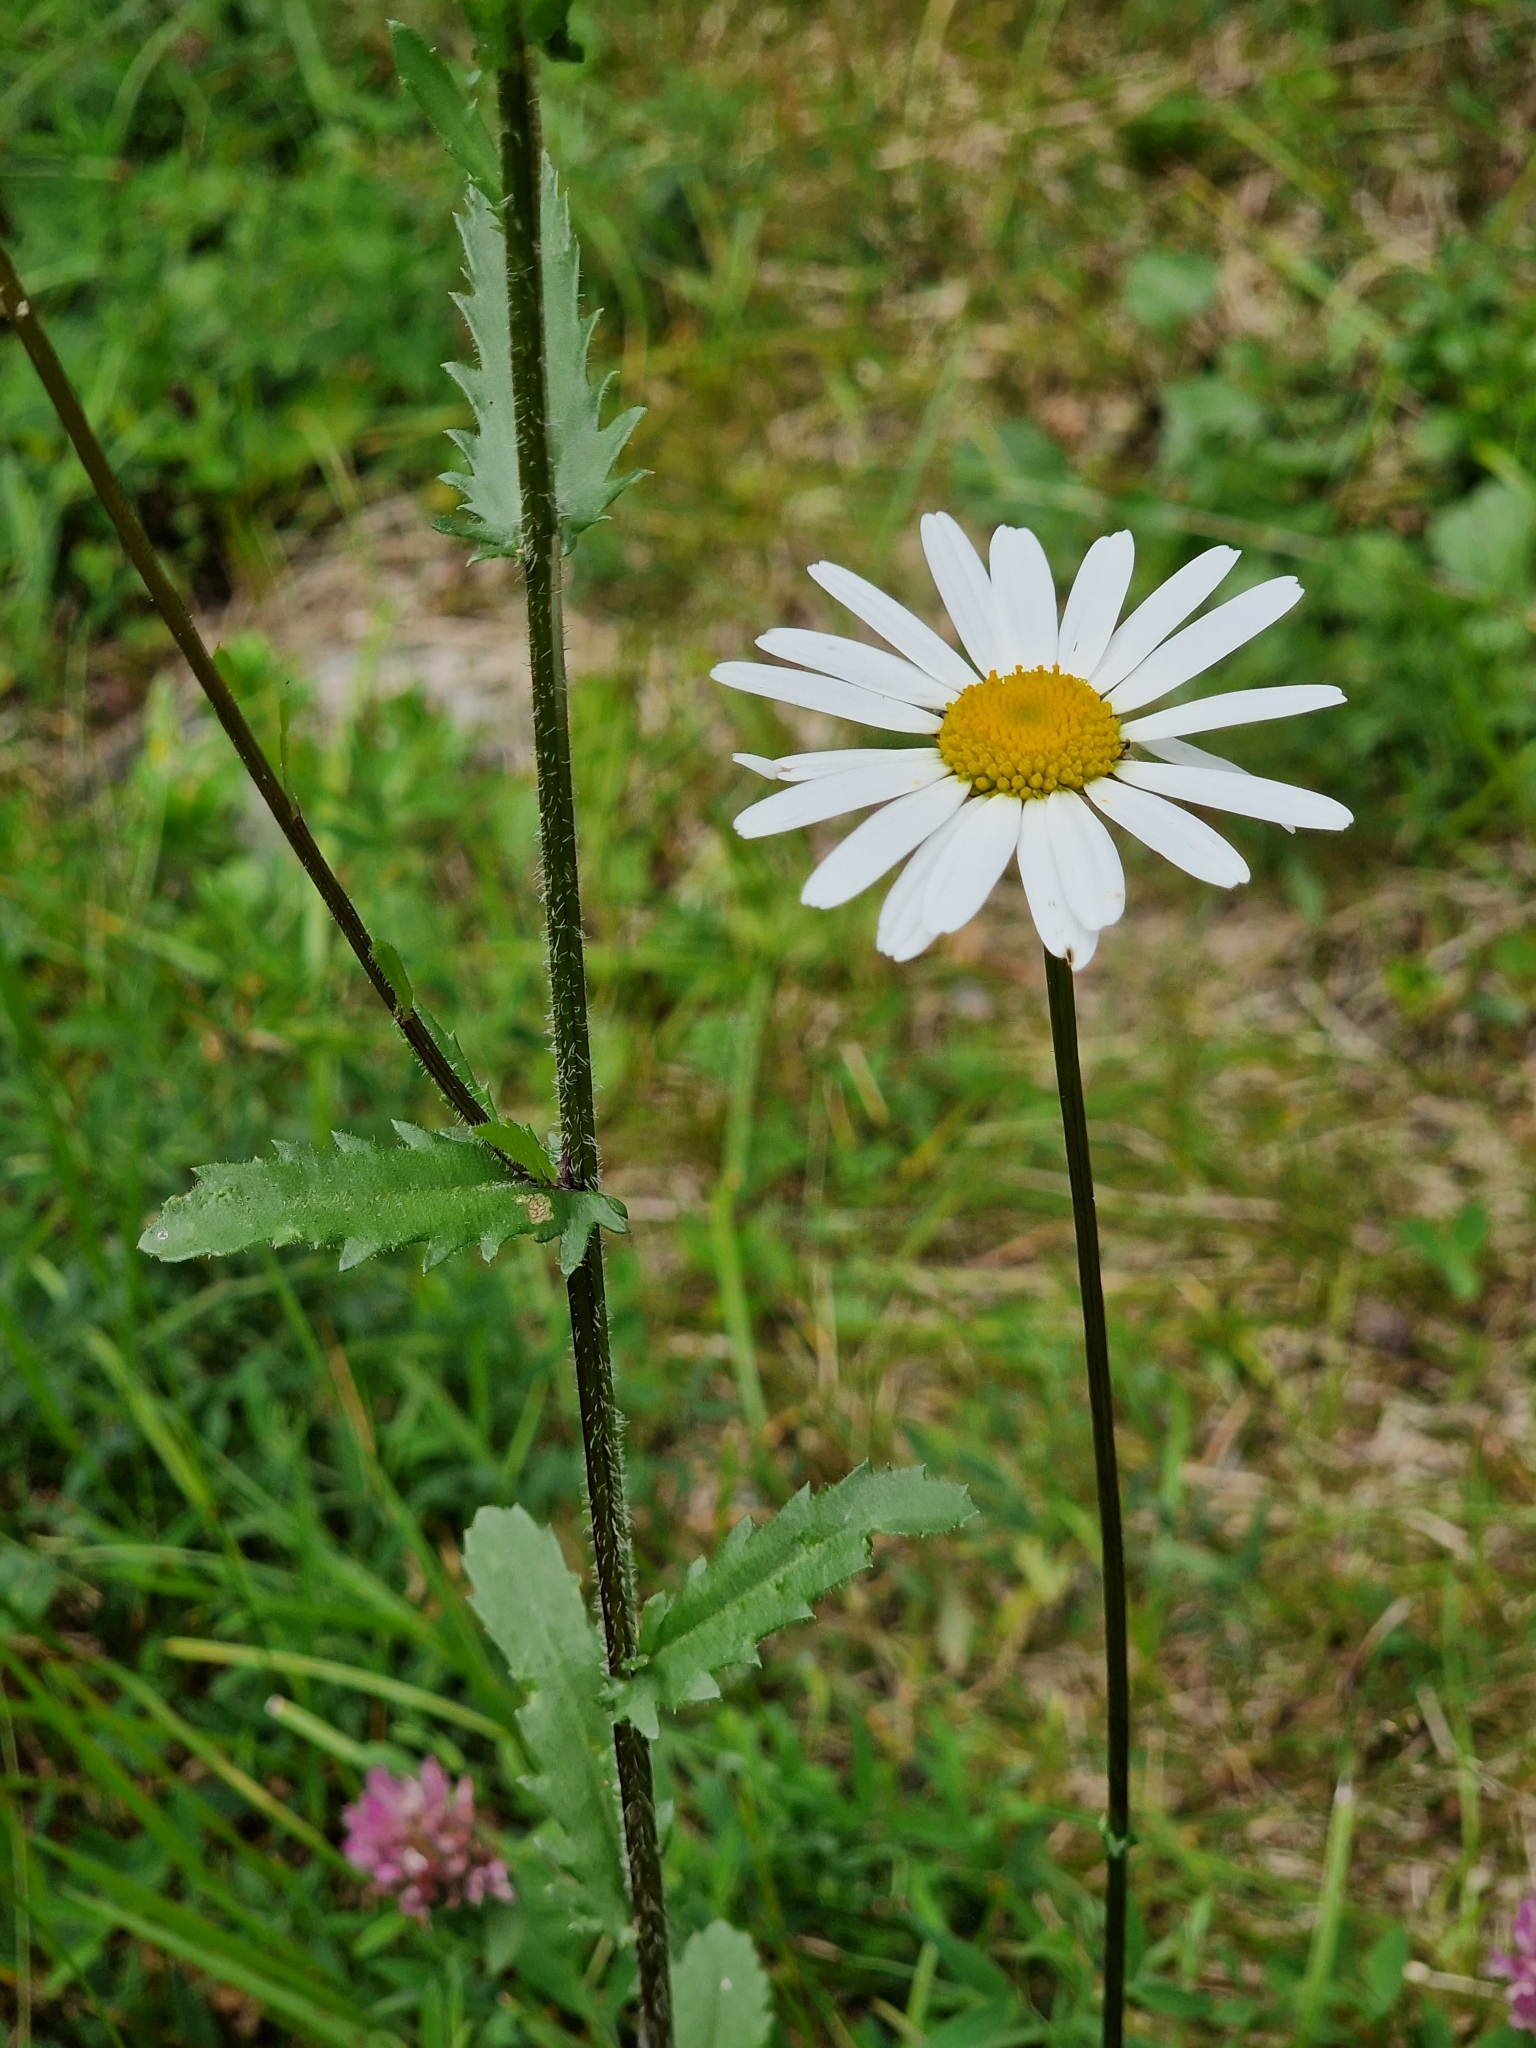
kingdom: Plantae
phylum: Tracheophyta
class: Magnoliopsida
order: Asterales
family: Asteraceae
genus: Leucanthemum
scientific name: Leucanthemum vulgare
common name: Oxeye daisy
